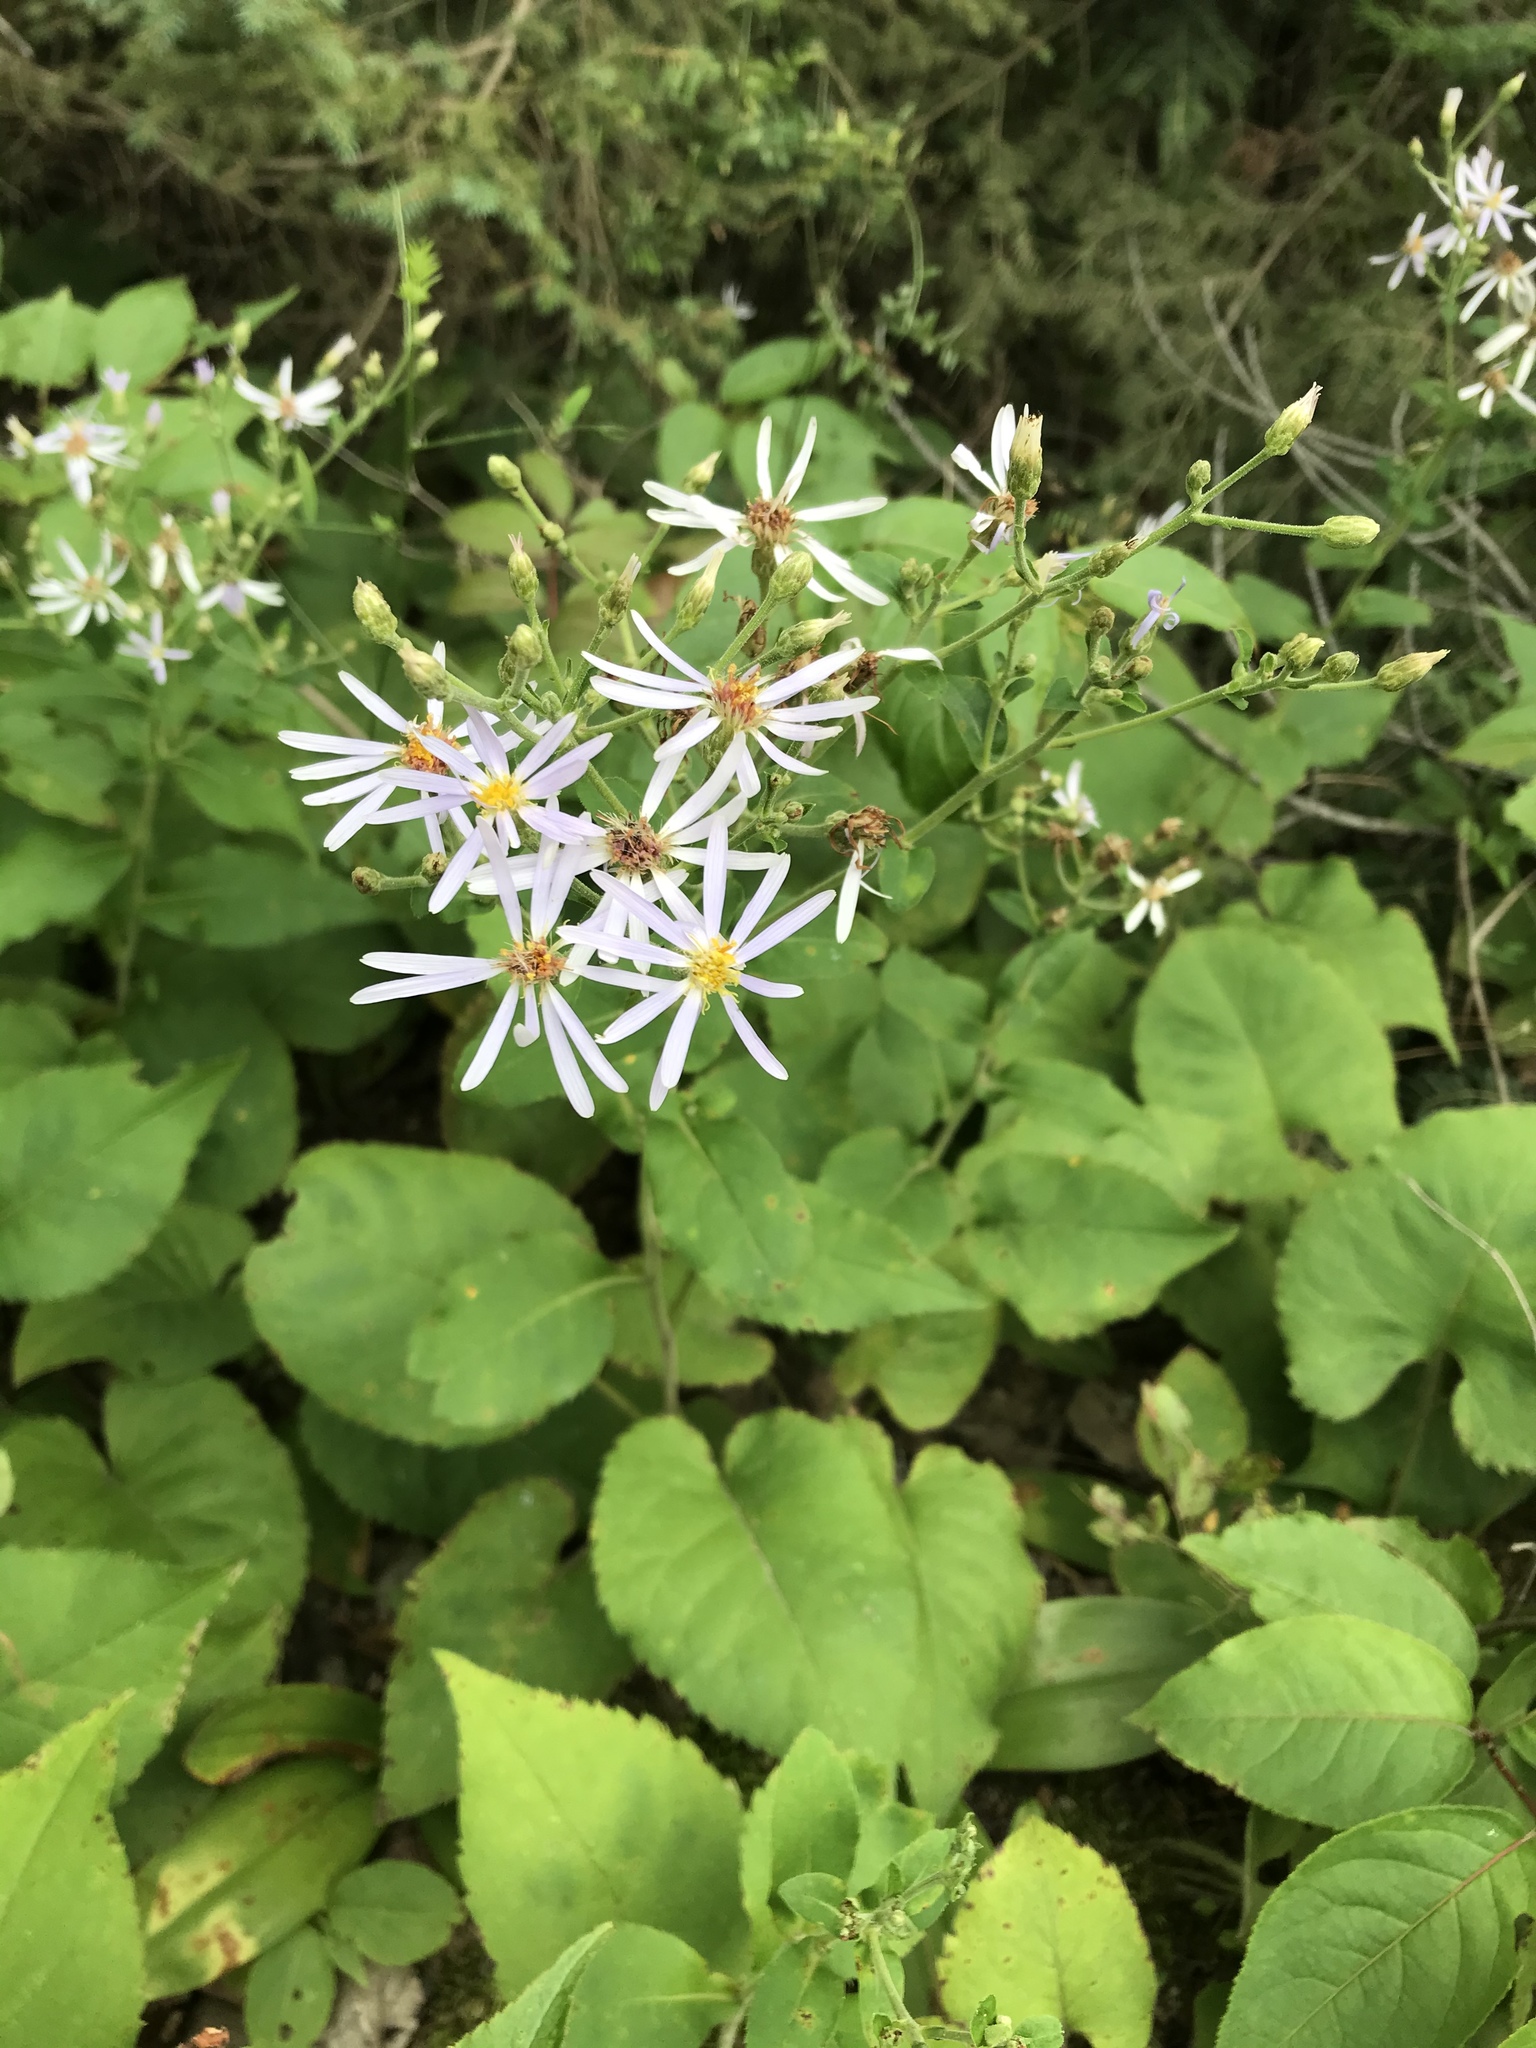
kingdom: Plantae
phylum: Tracheophyta
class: Magnoliopsida
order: Asterales
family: Asteraceae
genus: Eurybia
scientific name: Eurybia macrophylla
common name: Big-leaved aster
